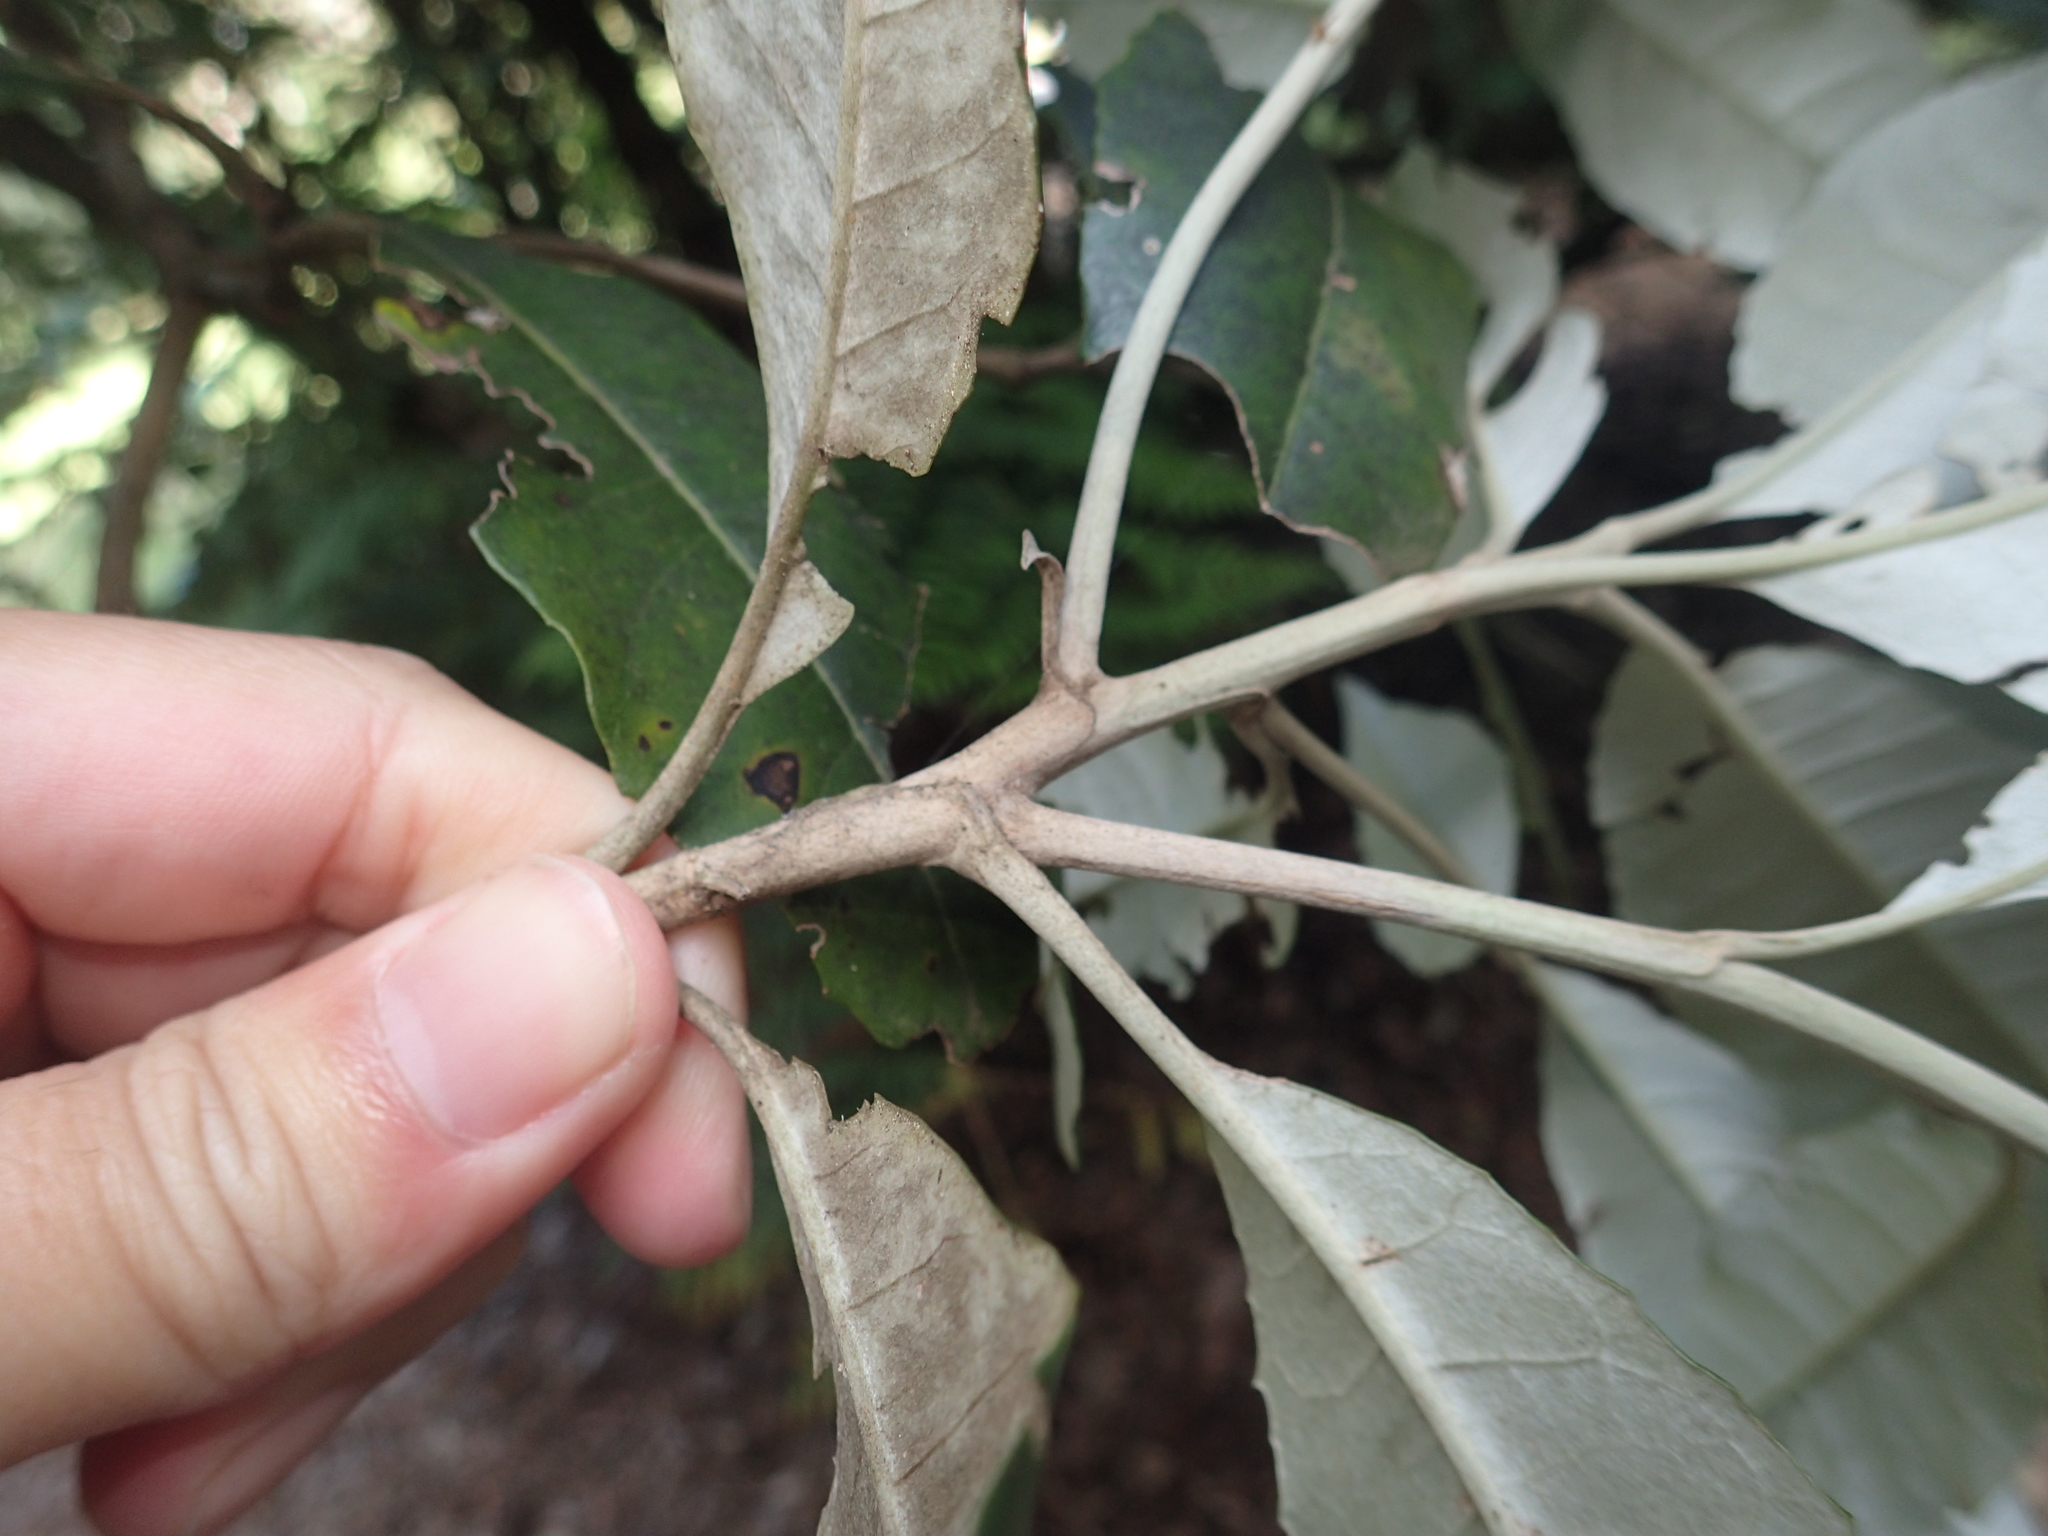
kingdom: Plantae
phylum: Tracheophyta
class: Magnoliopsida
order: Asterales
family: Asteraceae
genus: Olearia
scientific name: Olearia argophylla
